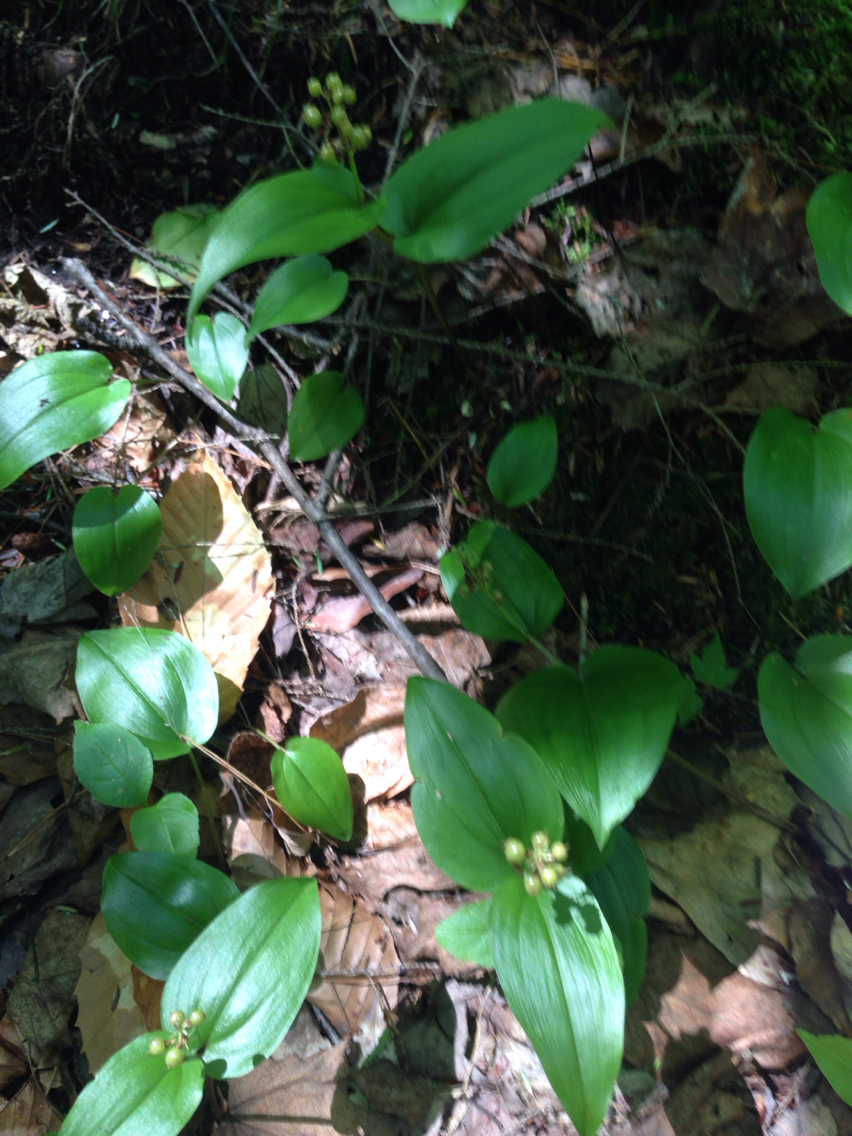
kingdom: Plantae
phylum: Tracheophyta
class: Liliopsida
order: Asparagales
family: Asparagaceae
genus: Maianthemum
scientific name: Maianthemum canadense
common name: False lily-of-the-valley
